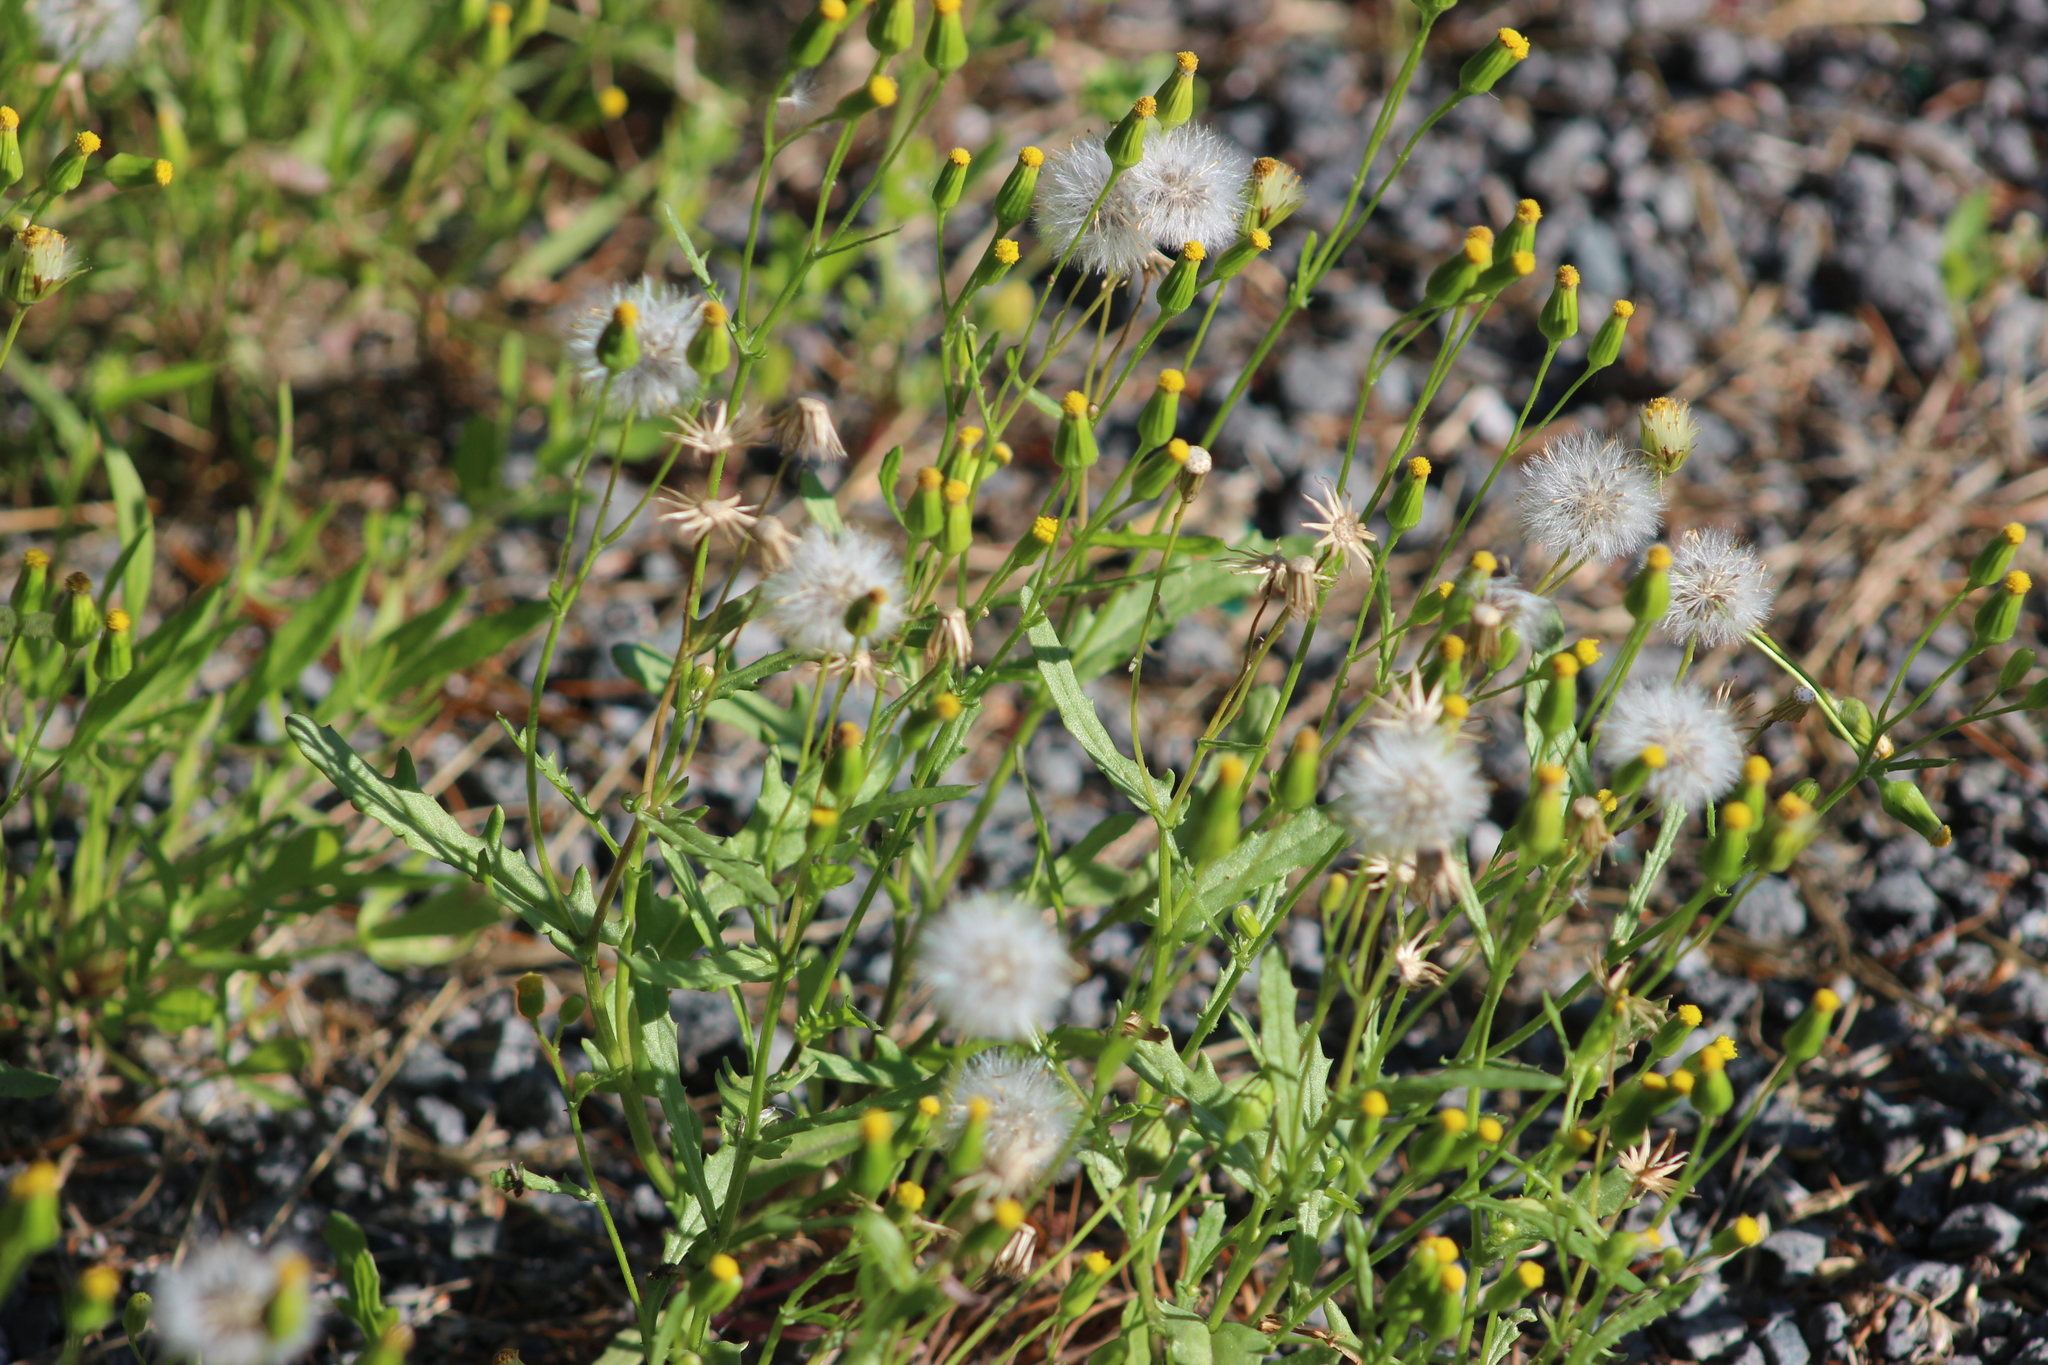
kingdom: Plantae
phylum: Tracheophyta
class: Magnoliopsida
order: Asterales
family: Asteraceae
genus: Senecio
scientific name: Senecio dubitabilis
